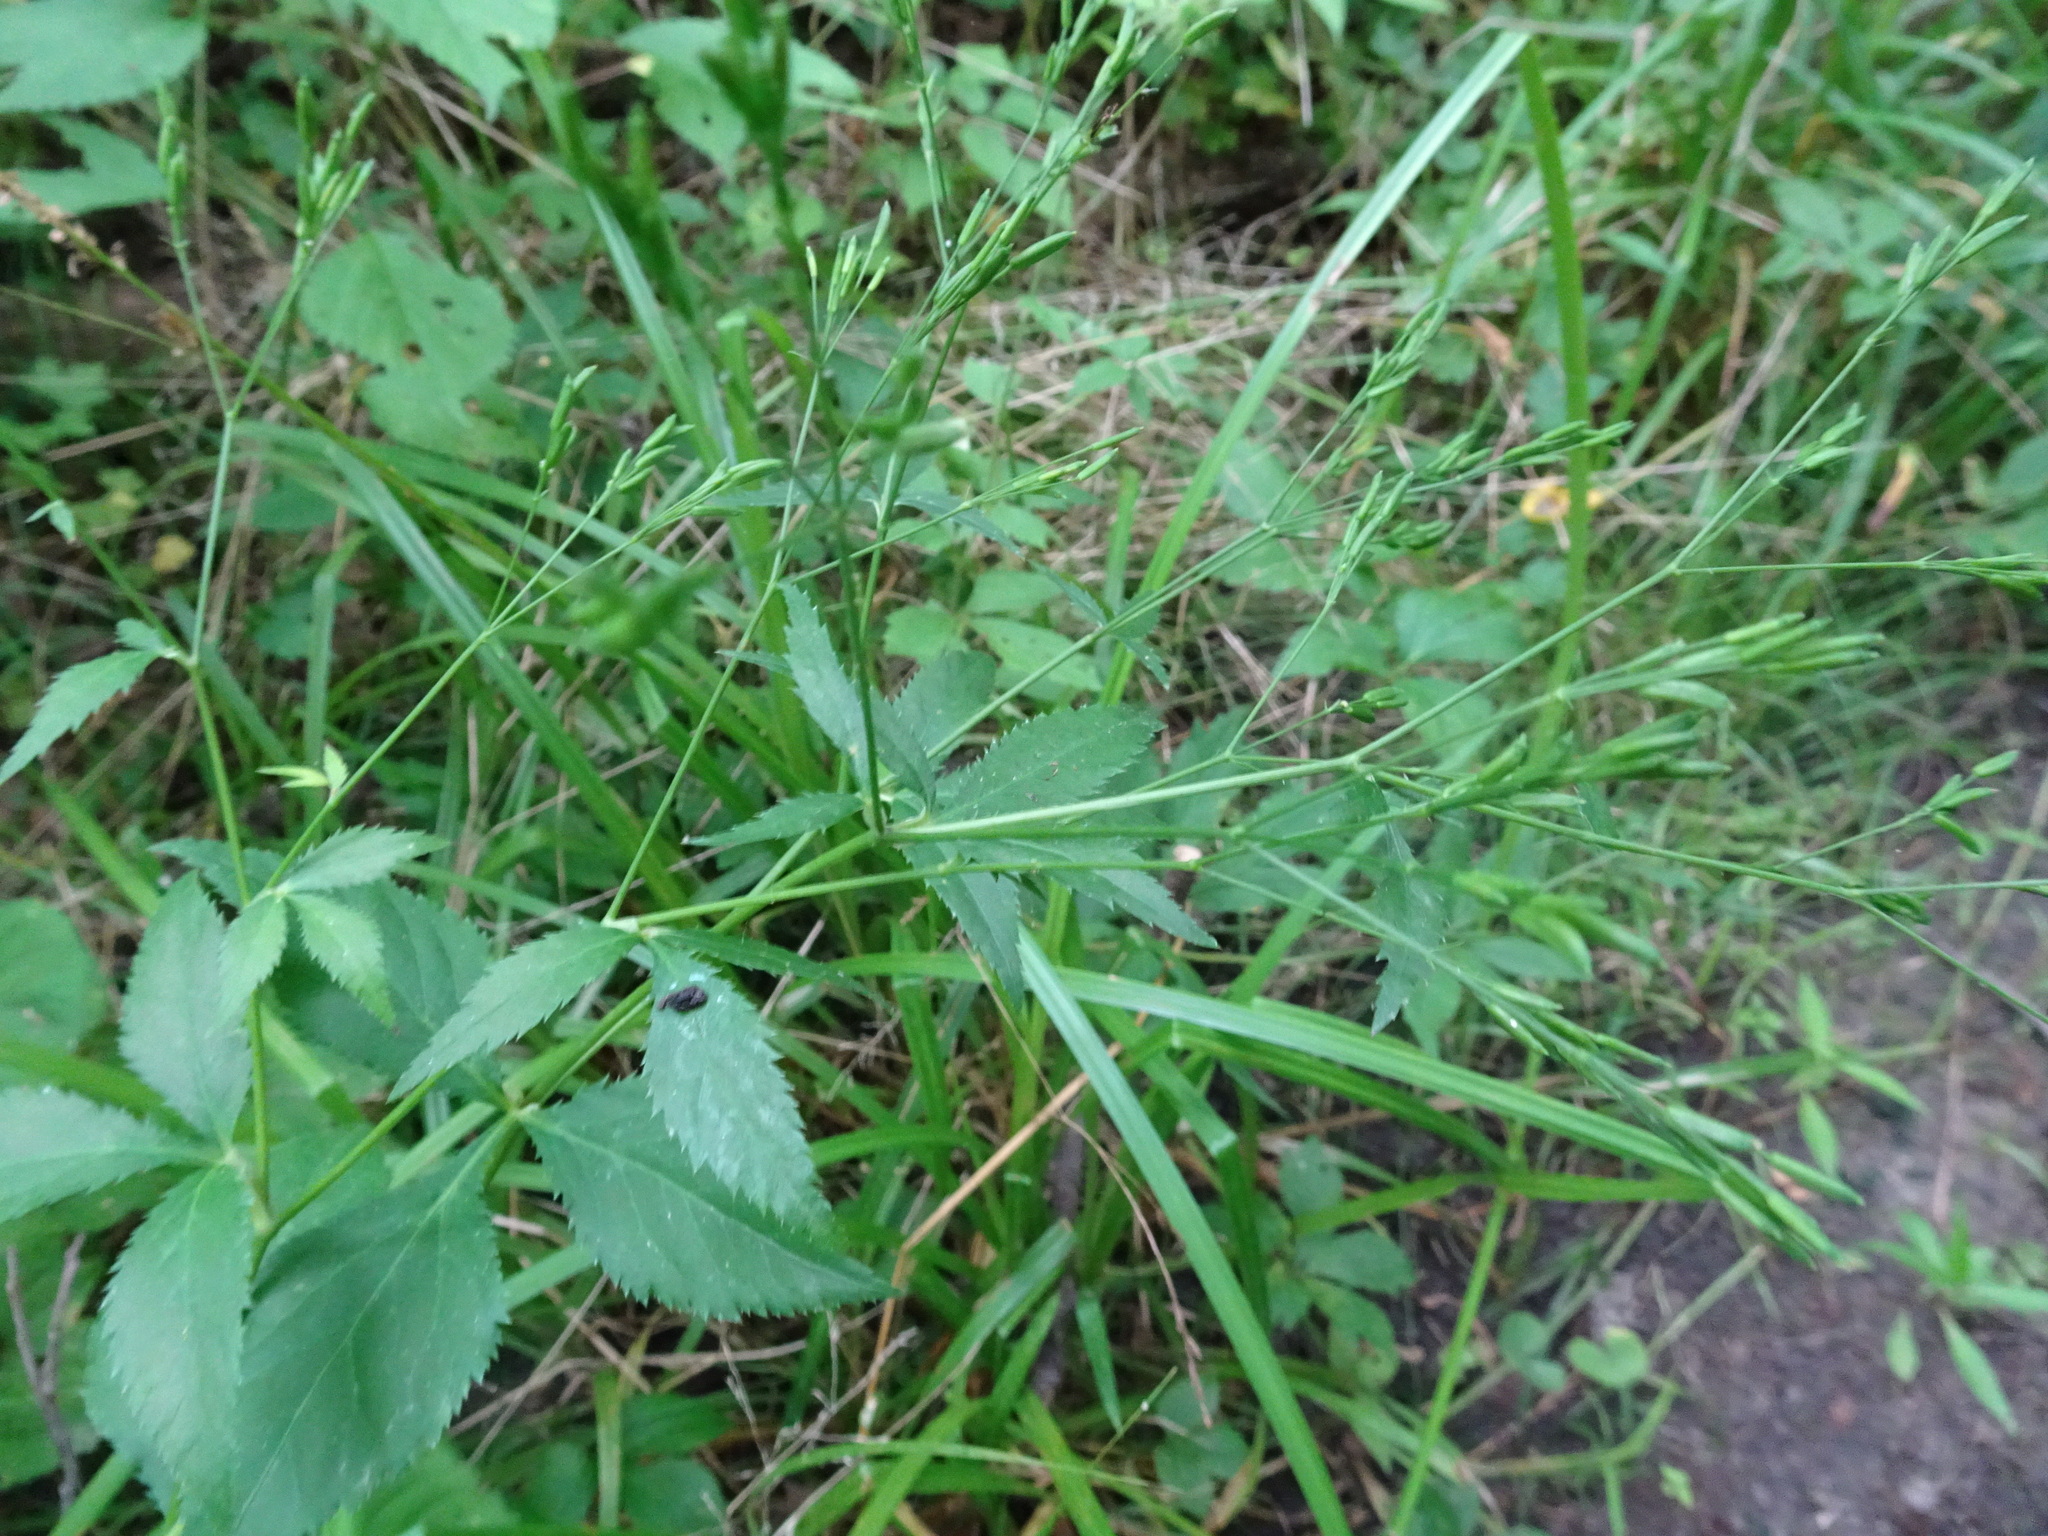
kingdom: Plantae
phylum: Tracheophyta
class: Magnoliopsida
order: Apiales
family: Apiaceae
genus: Cryptotaenia
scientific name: Cryptotaenia canadensis
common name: Honewort
